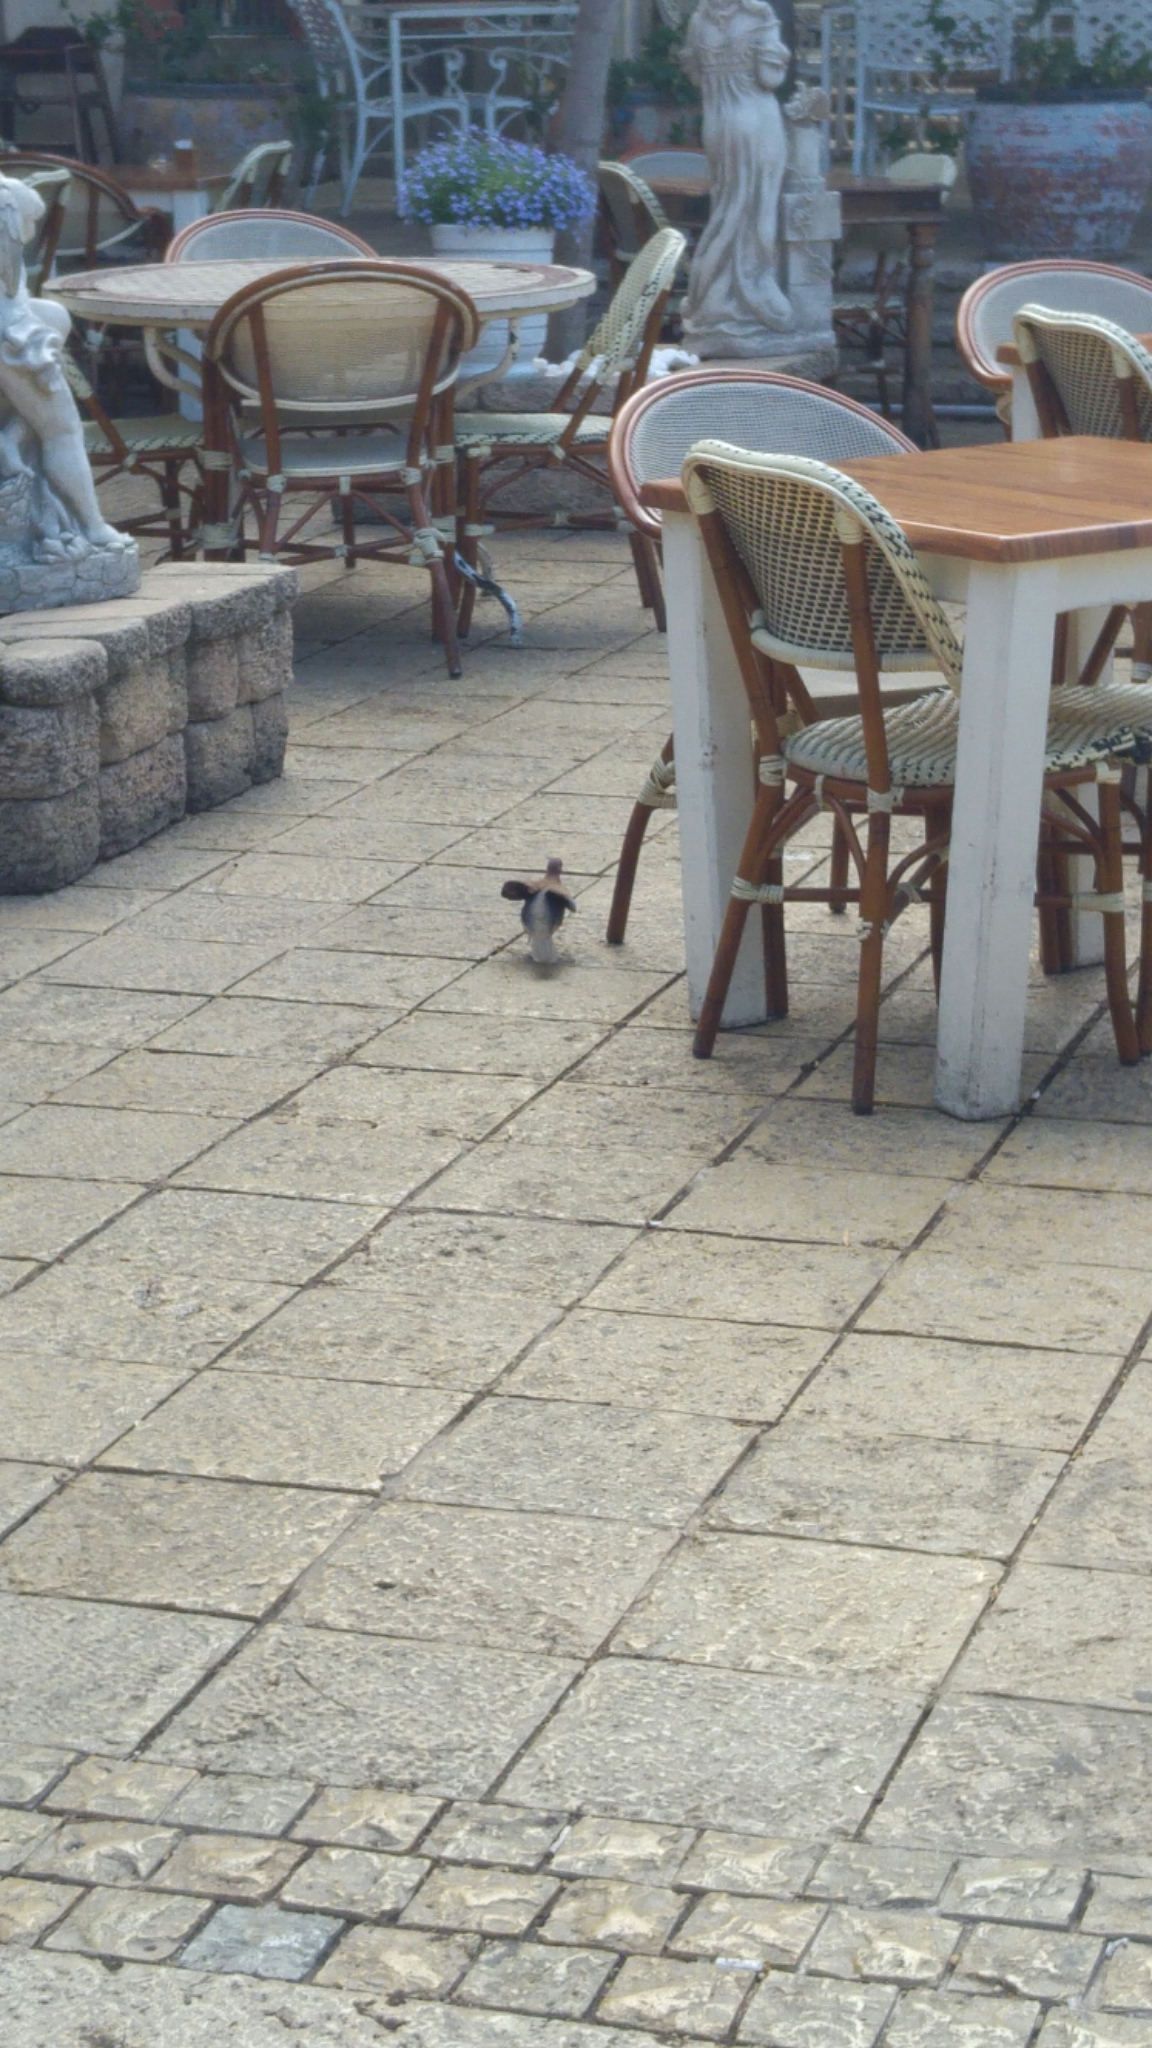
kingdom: Animalia
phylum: Chordata
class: Aves
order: Columbiformes
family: Columbidae
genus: Spilopelia
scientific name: Spilopelia senegalensis
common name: Laughing dove
